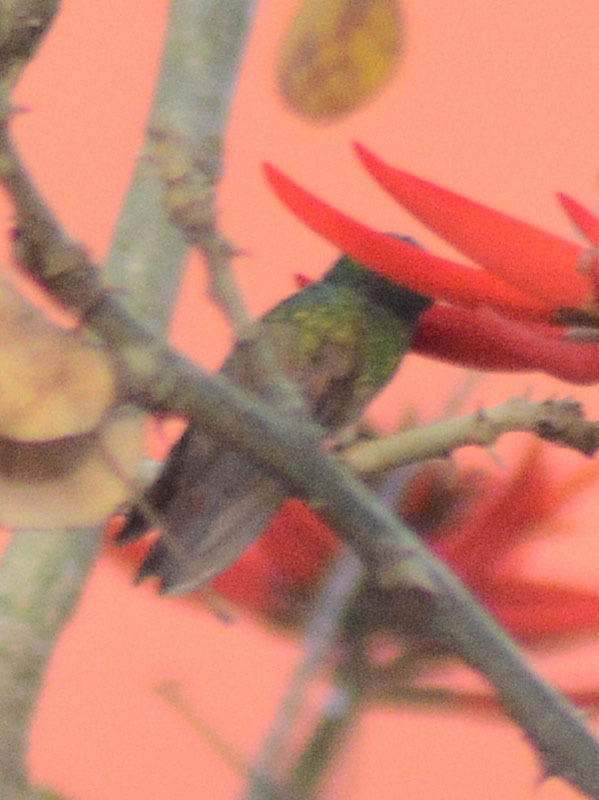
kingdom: Animalia
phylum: Chordata
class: Aves
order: Apodiformes
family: Trochilidae
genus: Saucerottia
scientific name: Saucerottia beryllina
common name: Berylline hummingbird
